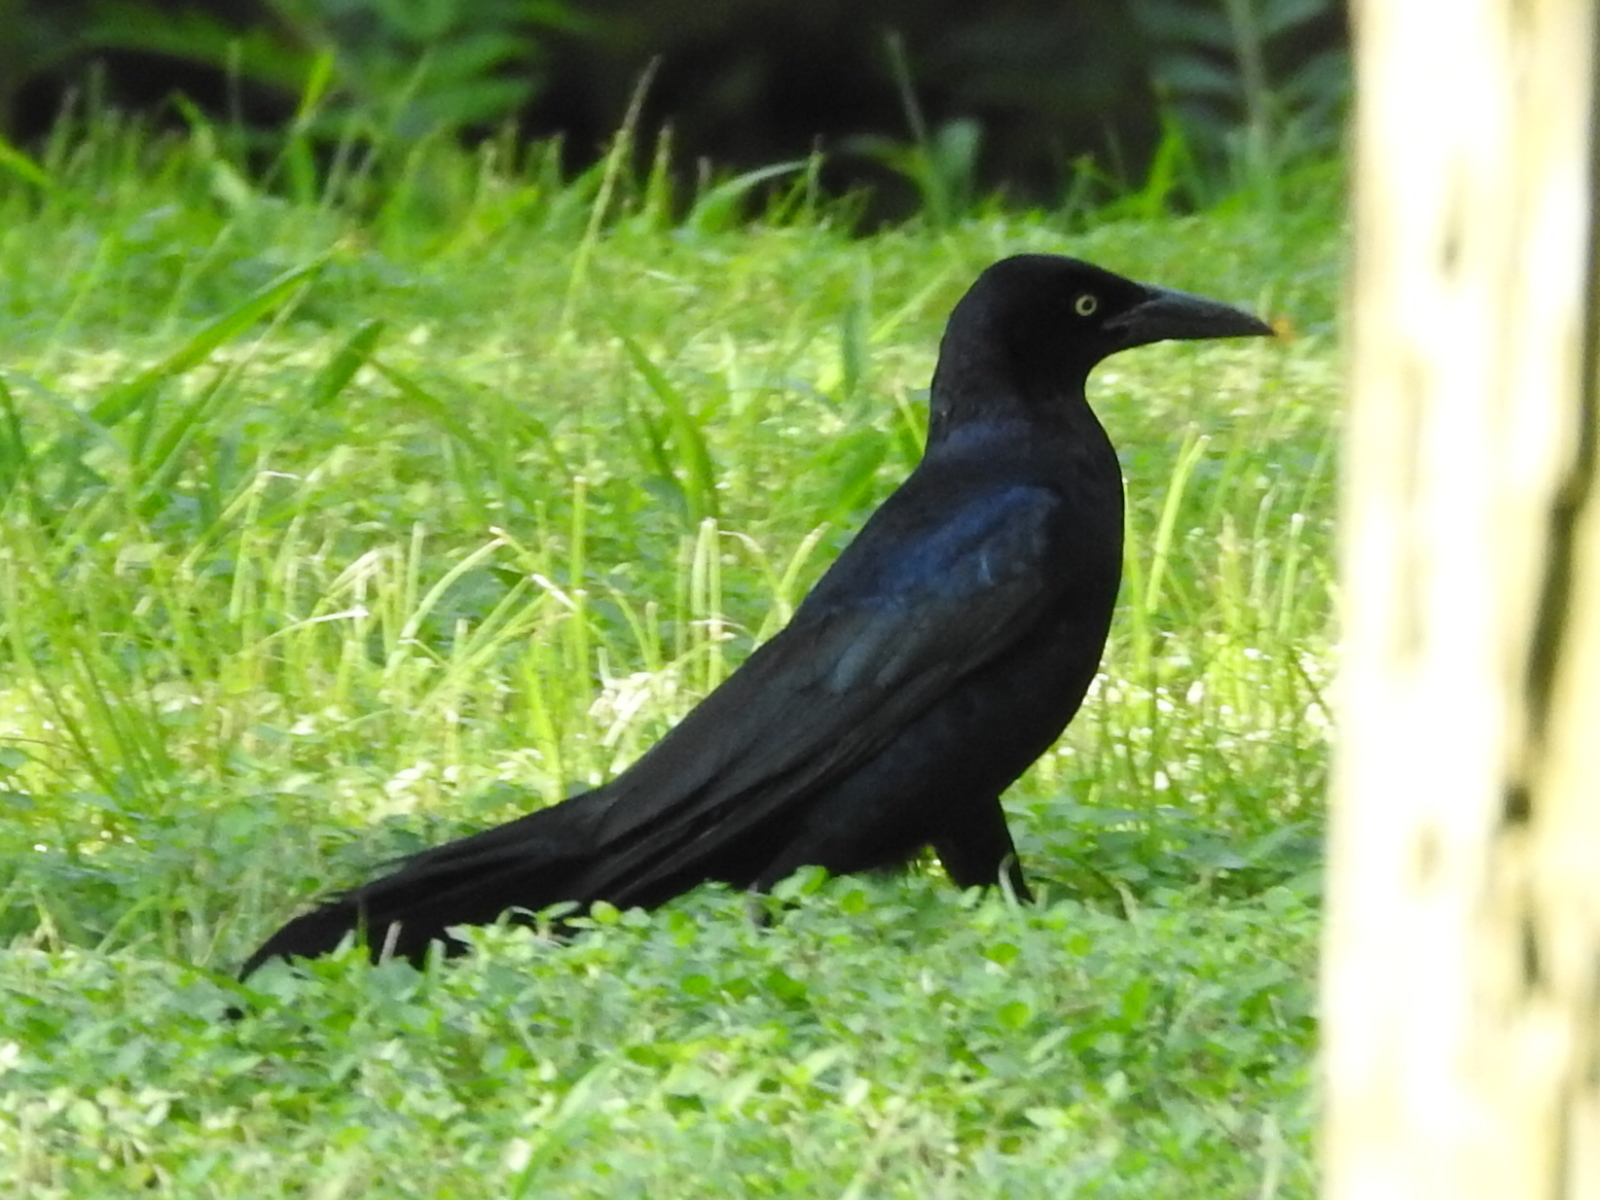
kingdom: Animalia
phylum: Chordata
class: Aves
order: Passeriformes
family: Icteridae
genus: Quiscalus
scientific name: Quiscalus mexicanus
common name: Great-tailed grackle
